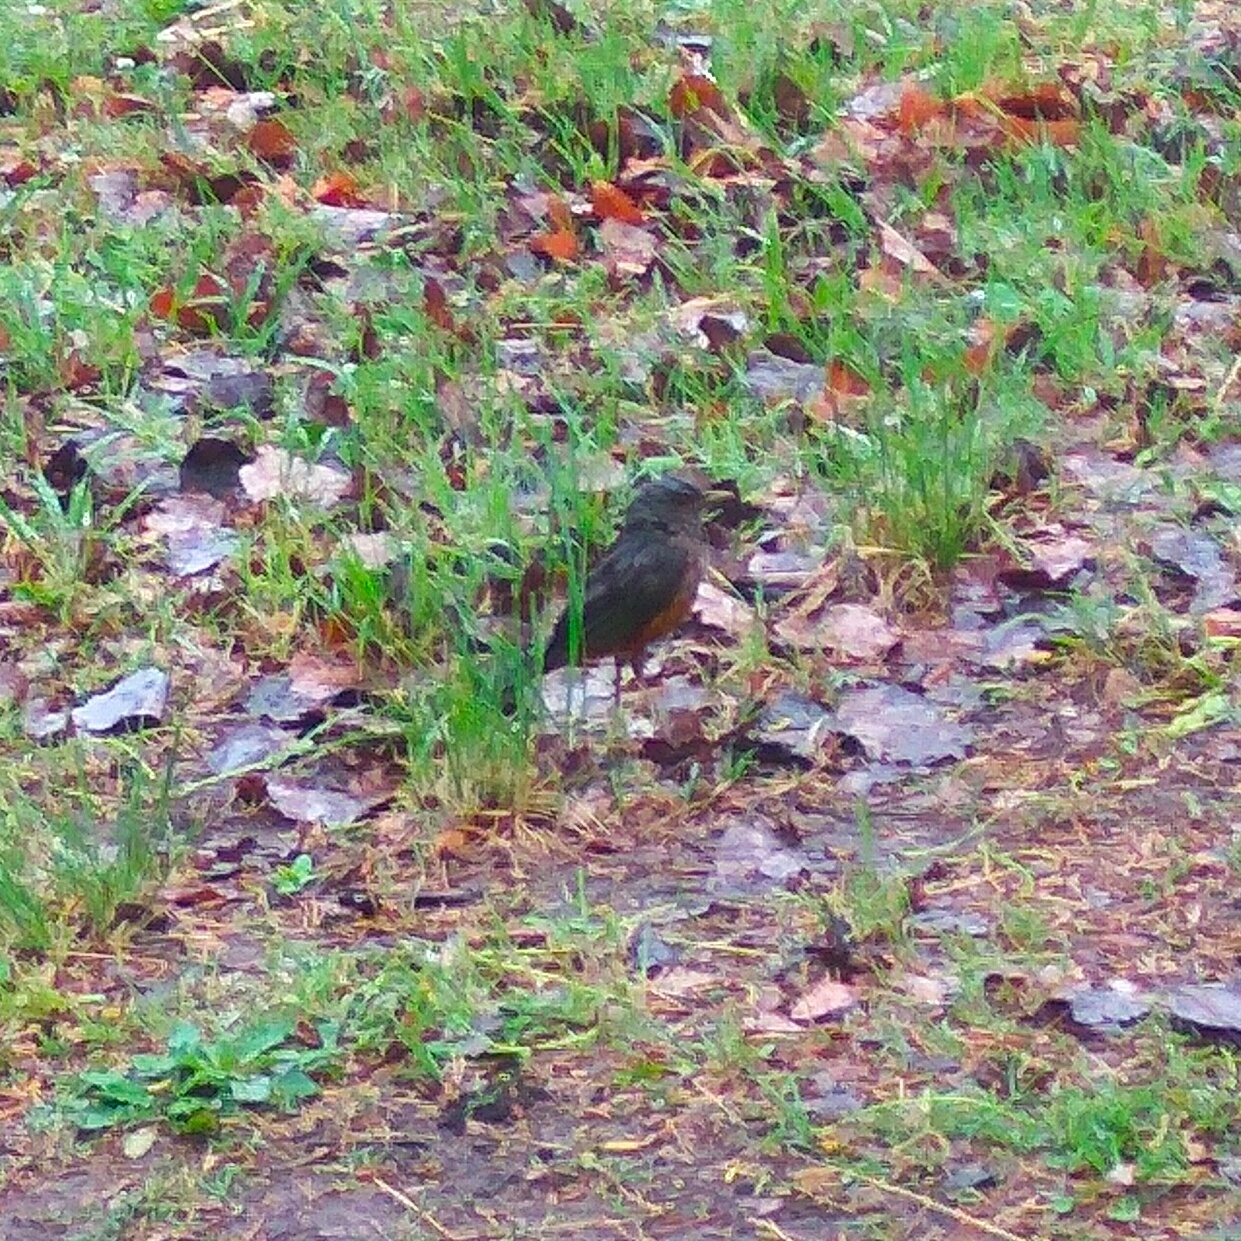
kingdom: Animalia
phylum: Chordata
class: Aves
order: Passeriformes
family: Turdidae
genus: Turdus
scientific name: Turdus rufiventris
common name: Rufous-bellied thrush
